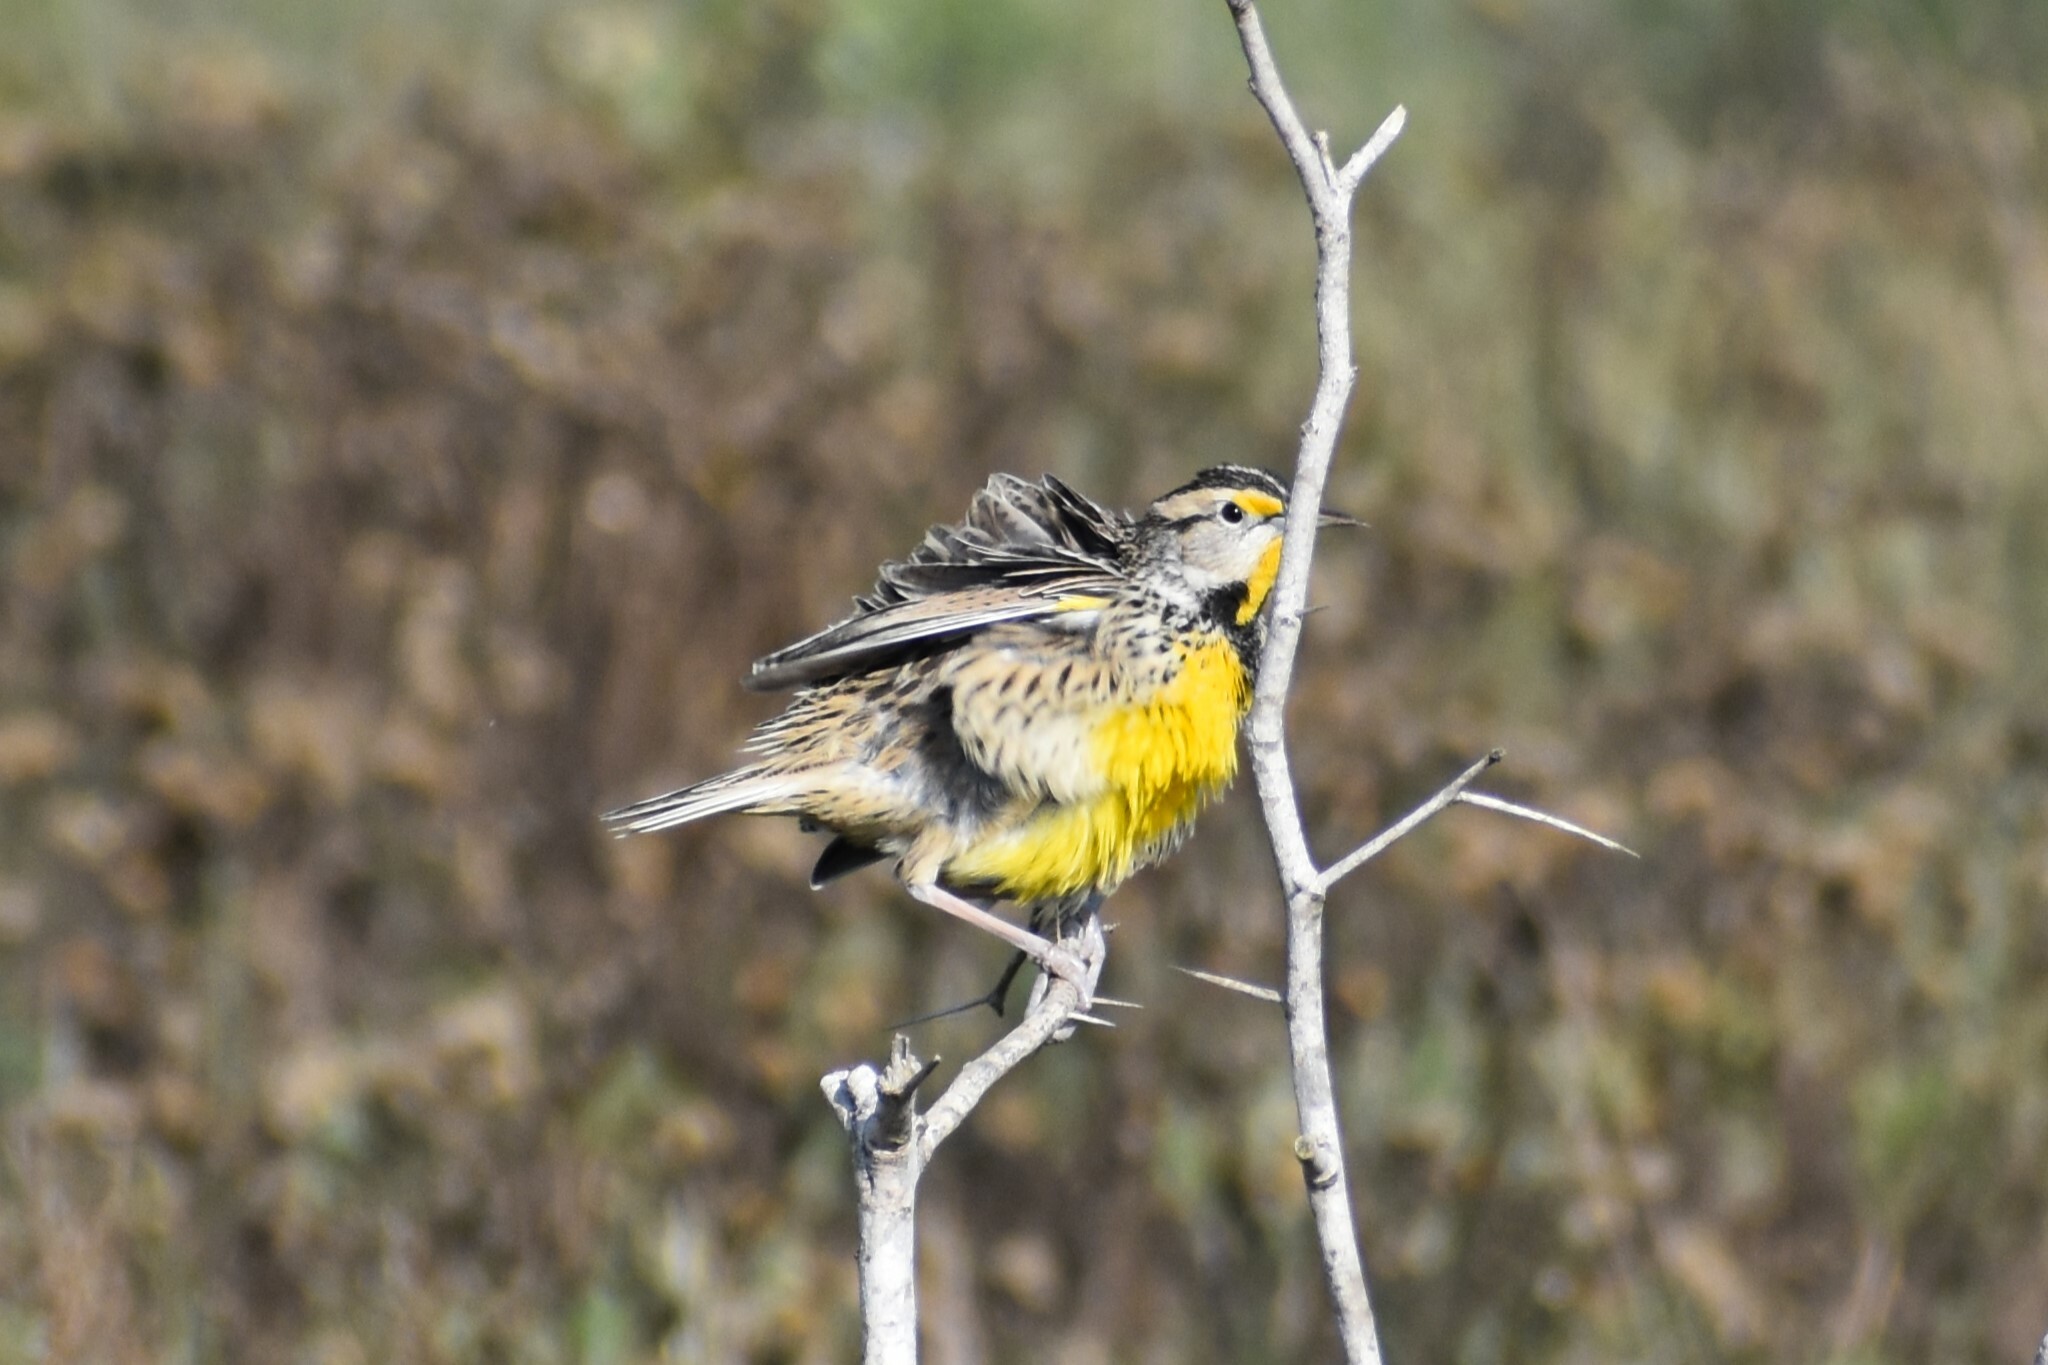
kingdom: Animalia
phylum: Chordata
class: Aves
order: Passeriformes
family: Icteridae
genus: Sturnella
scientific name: Sturnella magna
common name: Eastern meadowlark
